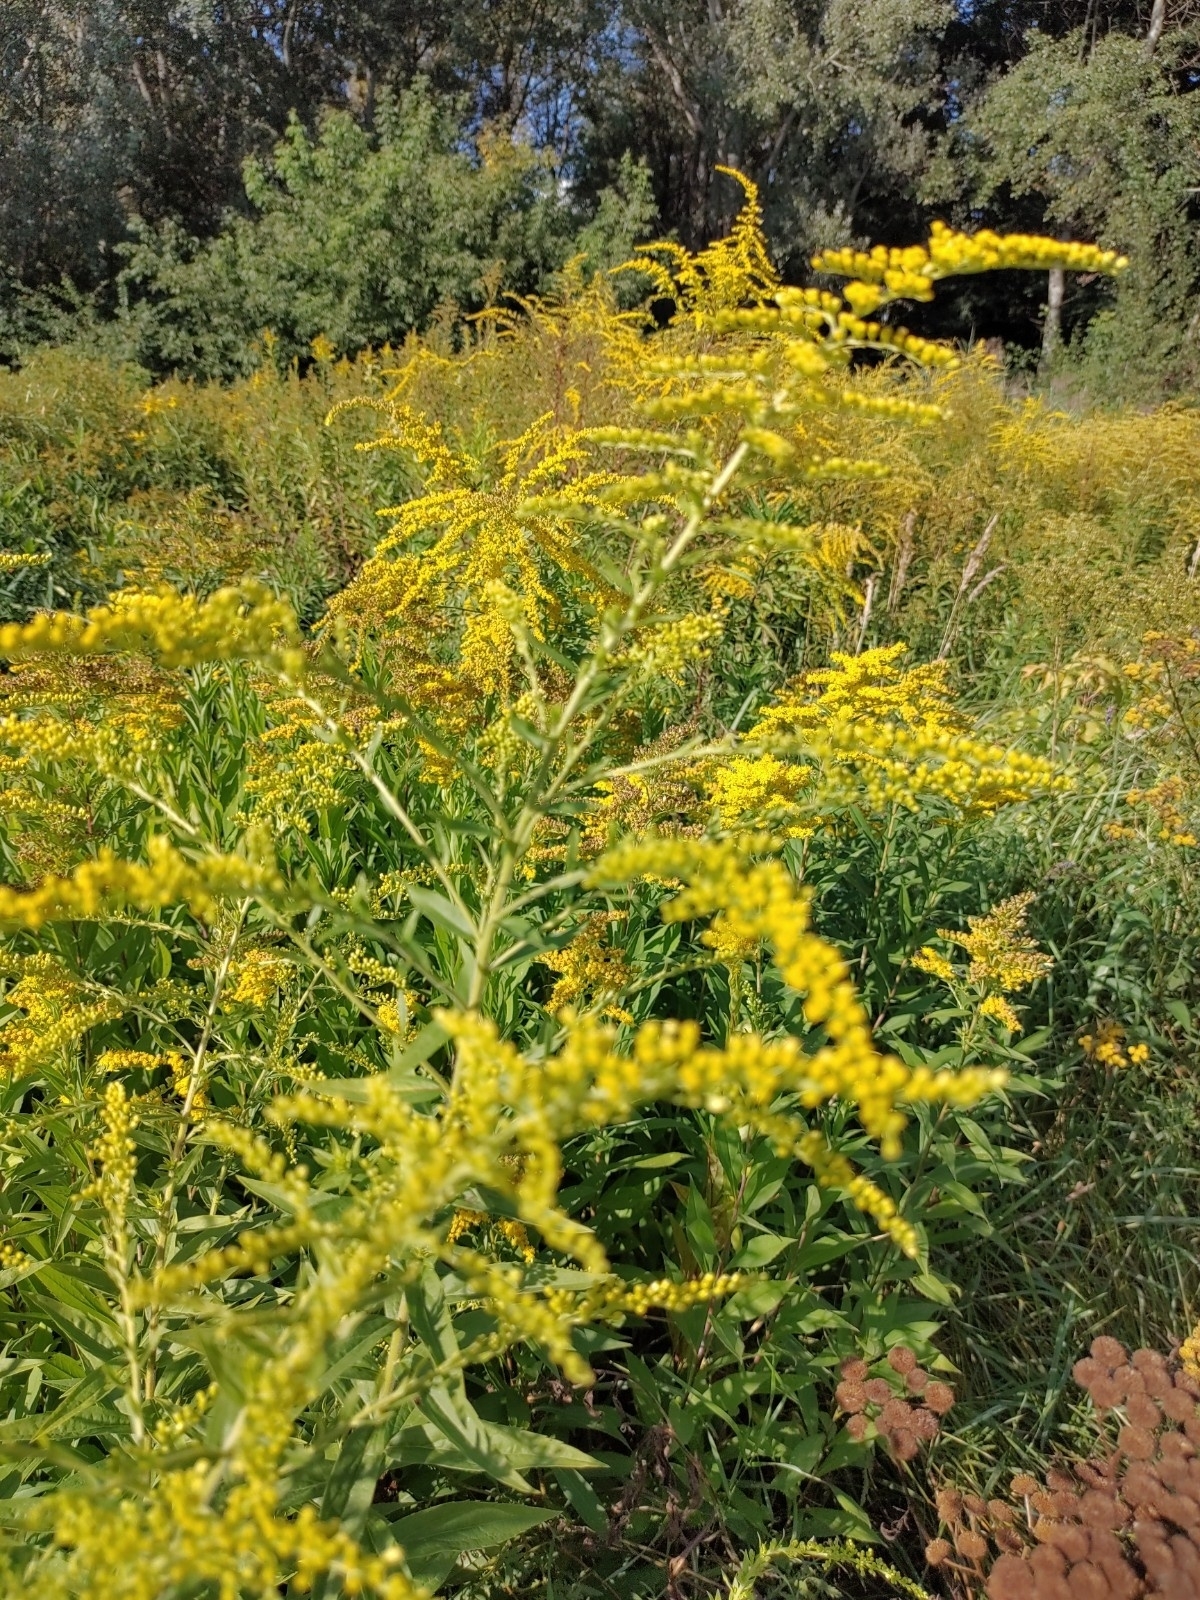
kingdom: Plantae
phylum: Tracheophyta
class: Magnoliopsida
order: Asterales
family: Asteraceae
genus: Solidago
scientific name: Solidago canadensis
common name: Canada goldenrod
